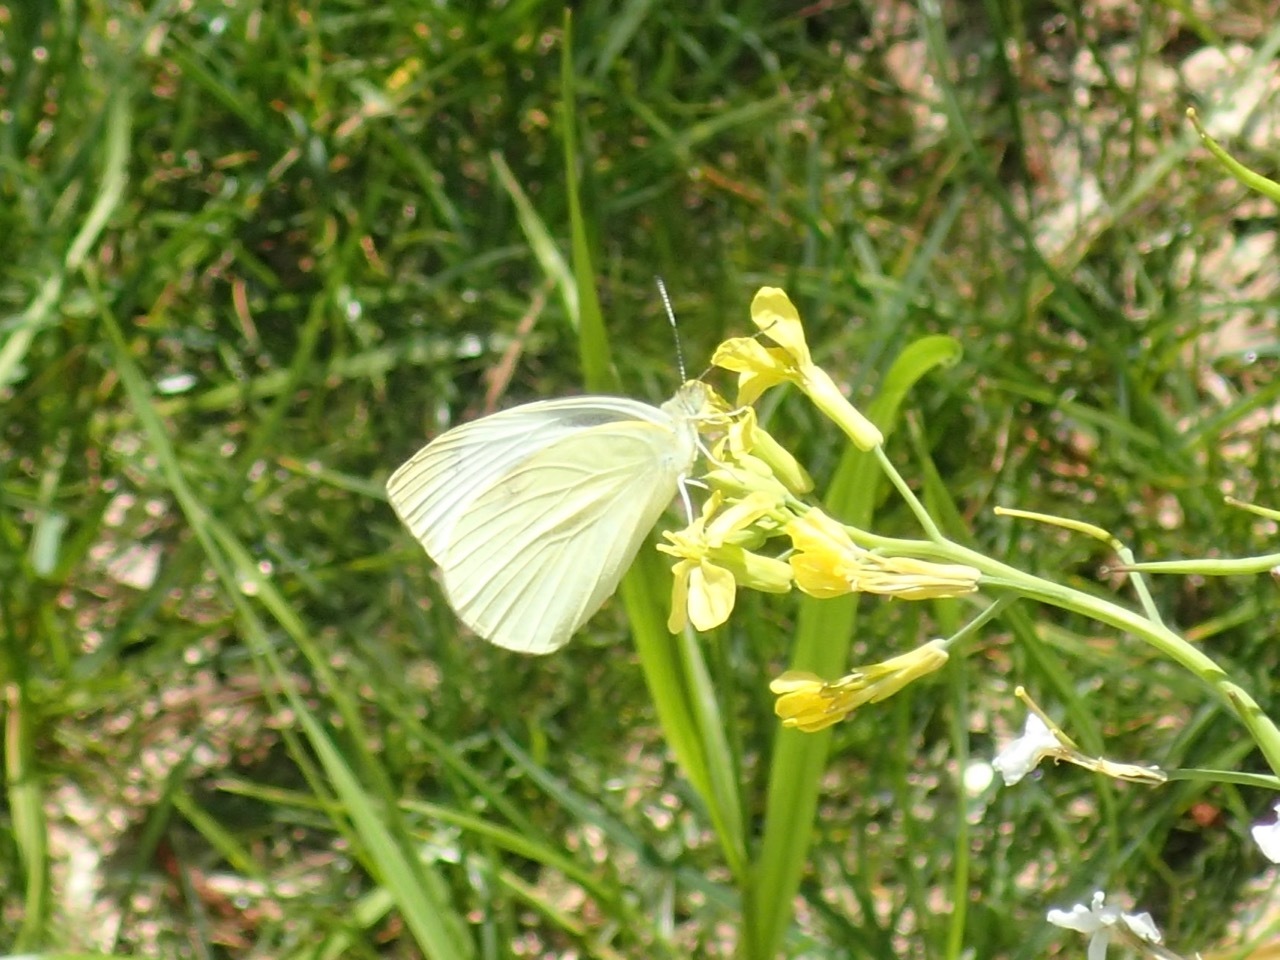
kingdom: Animalia
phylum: Arthropoda
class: Insecta
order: Lepidoptera
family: Pieridae
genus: Pieris
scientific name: Pieris rapae
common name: Small white
